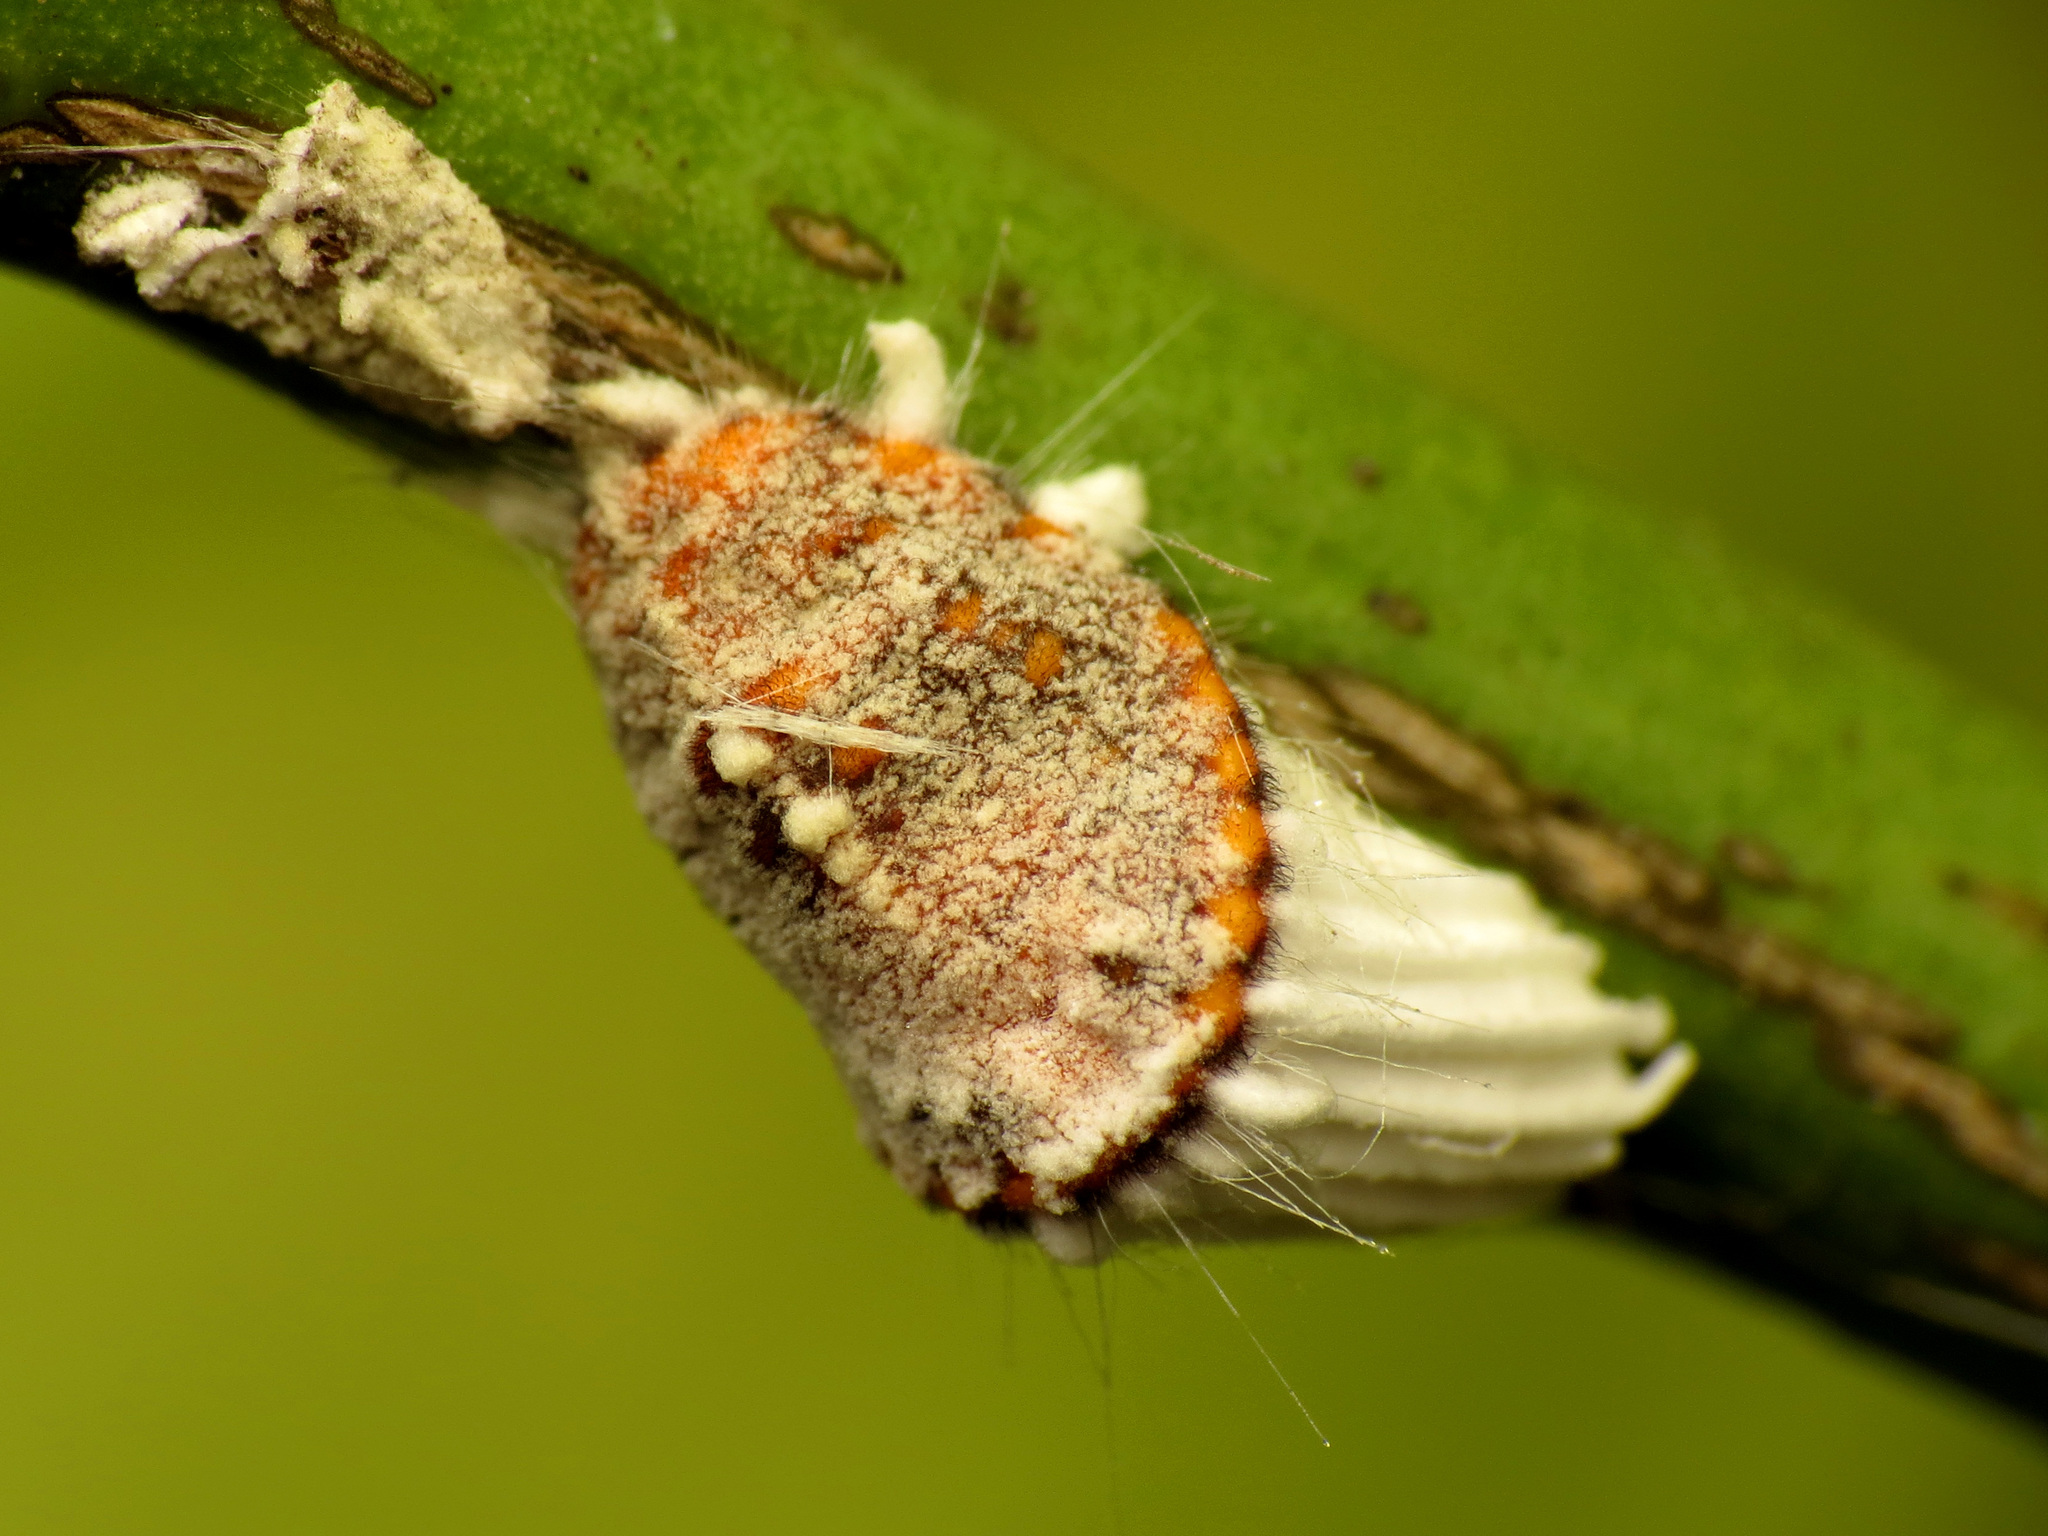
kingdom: Animalia
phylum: Arthropoda
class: Insecta
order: Hemiptera
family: Margarodidae
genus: Icerya
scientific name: Icerya purchasi
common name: Cottony cushion scale
